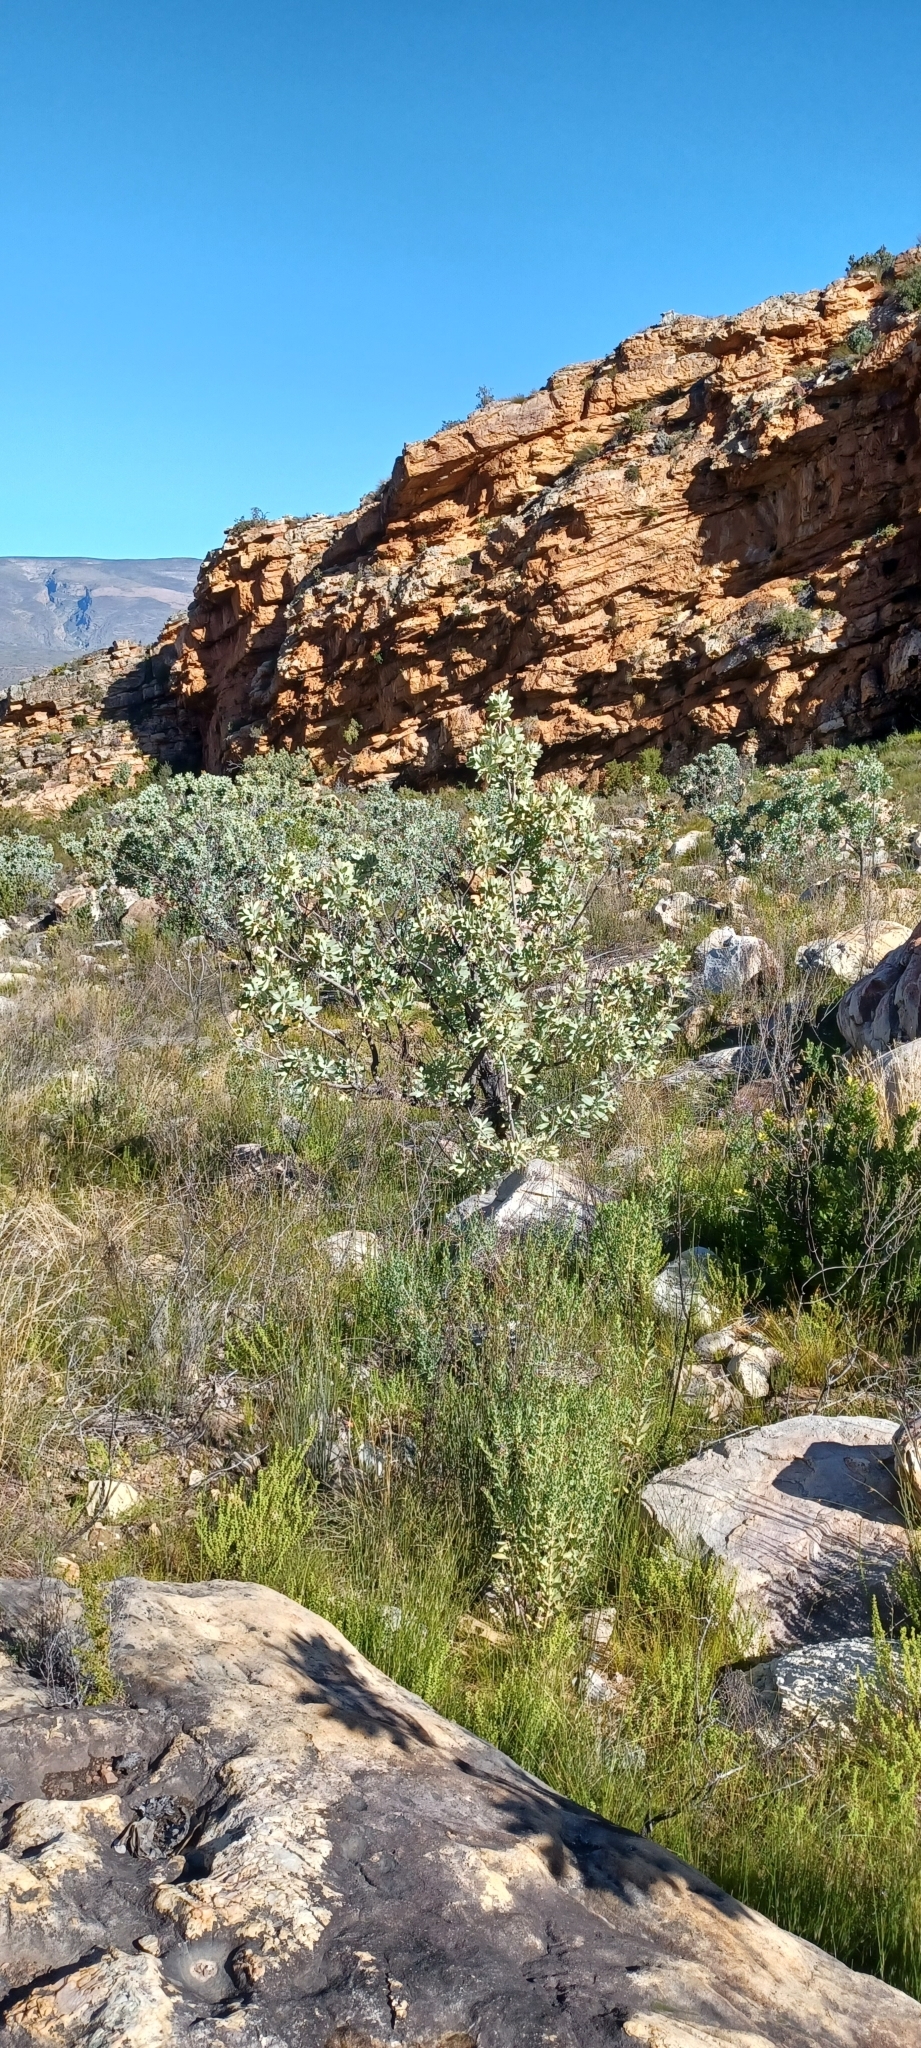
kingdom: Plantae
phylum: Tracheophyta
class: Magnoliopsida
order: Proteales
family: Proteaceae
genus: Protea
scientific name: Protea nitida
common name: Tree protea
